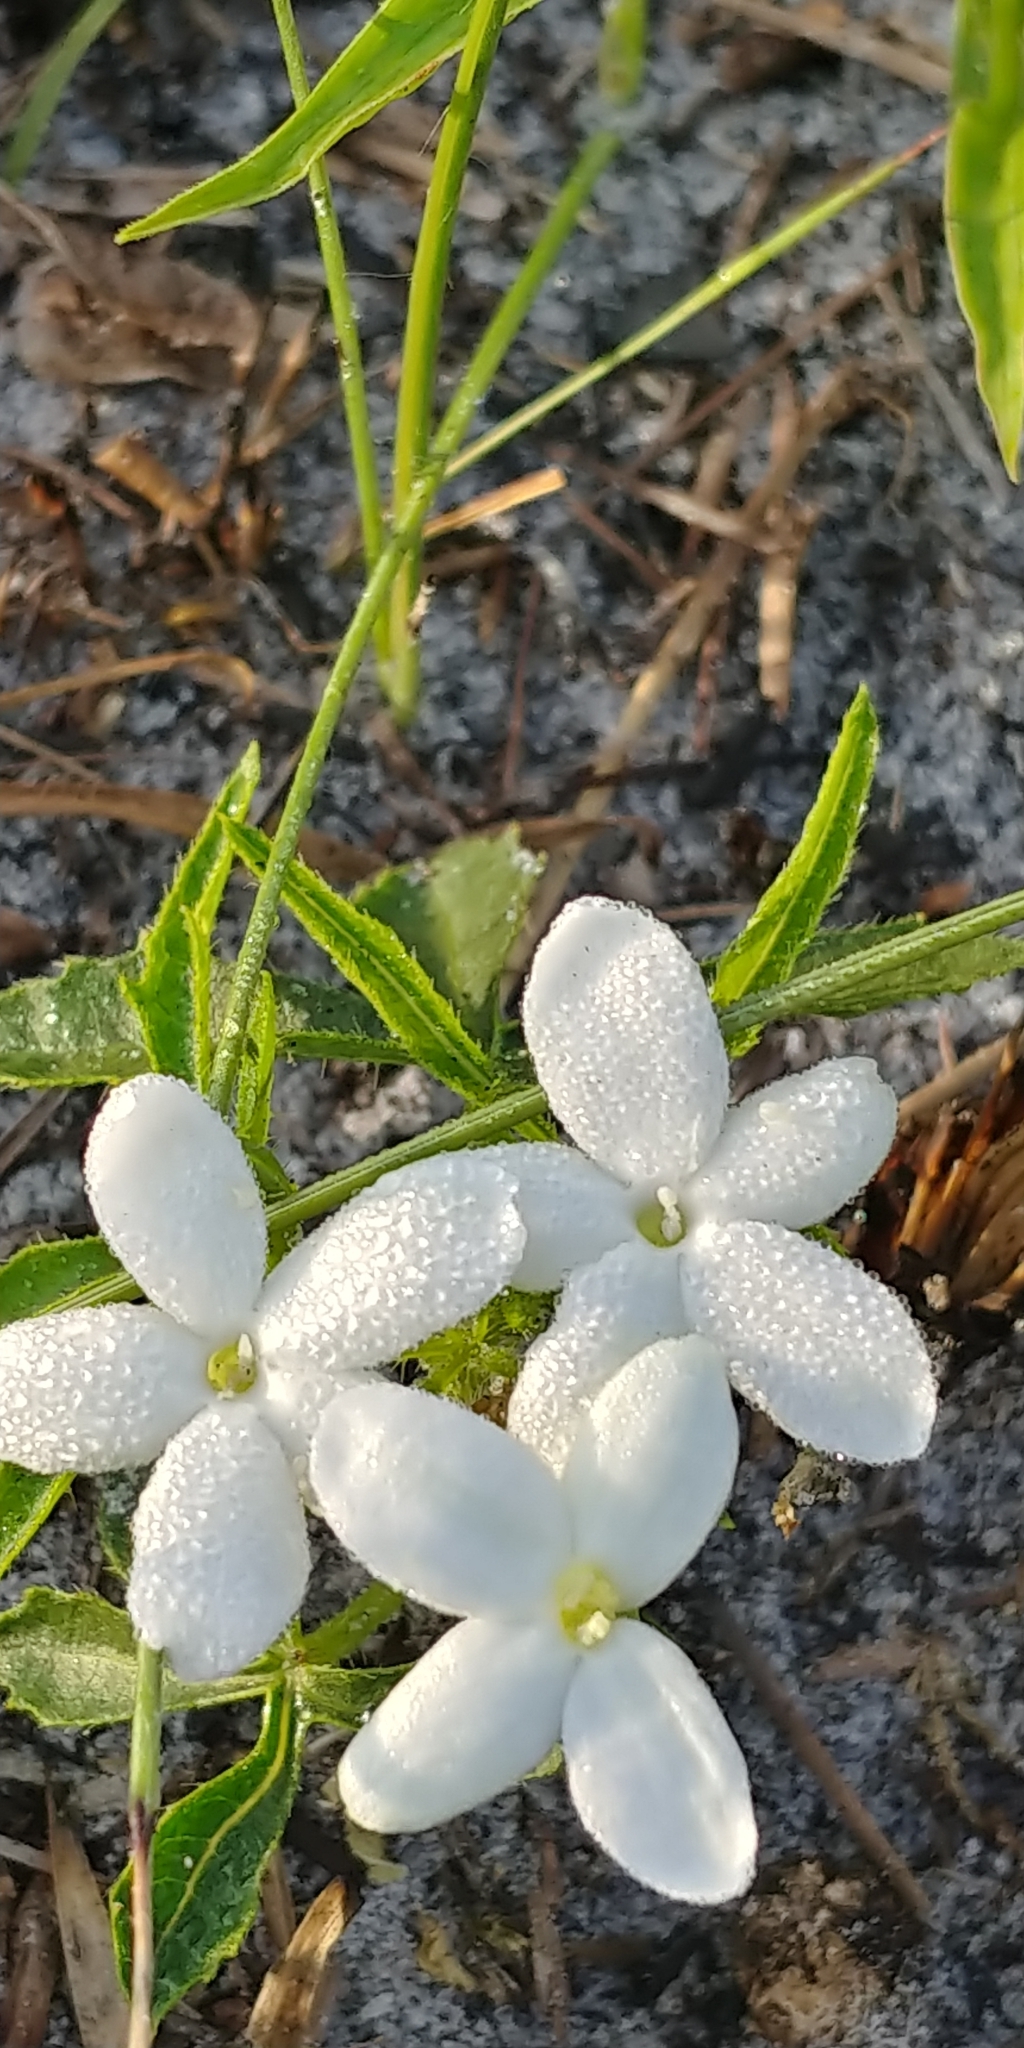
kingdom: Plantae
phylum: Tracheophyta
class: Magnoliopsida
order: Malpighiales
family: Euphorbiaceae
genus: Cnidoscolus
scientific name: Cnidoscolus stimulosus
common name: Bull-nettle
